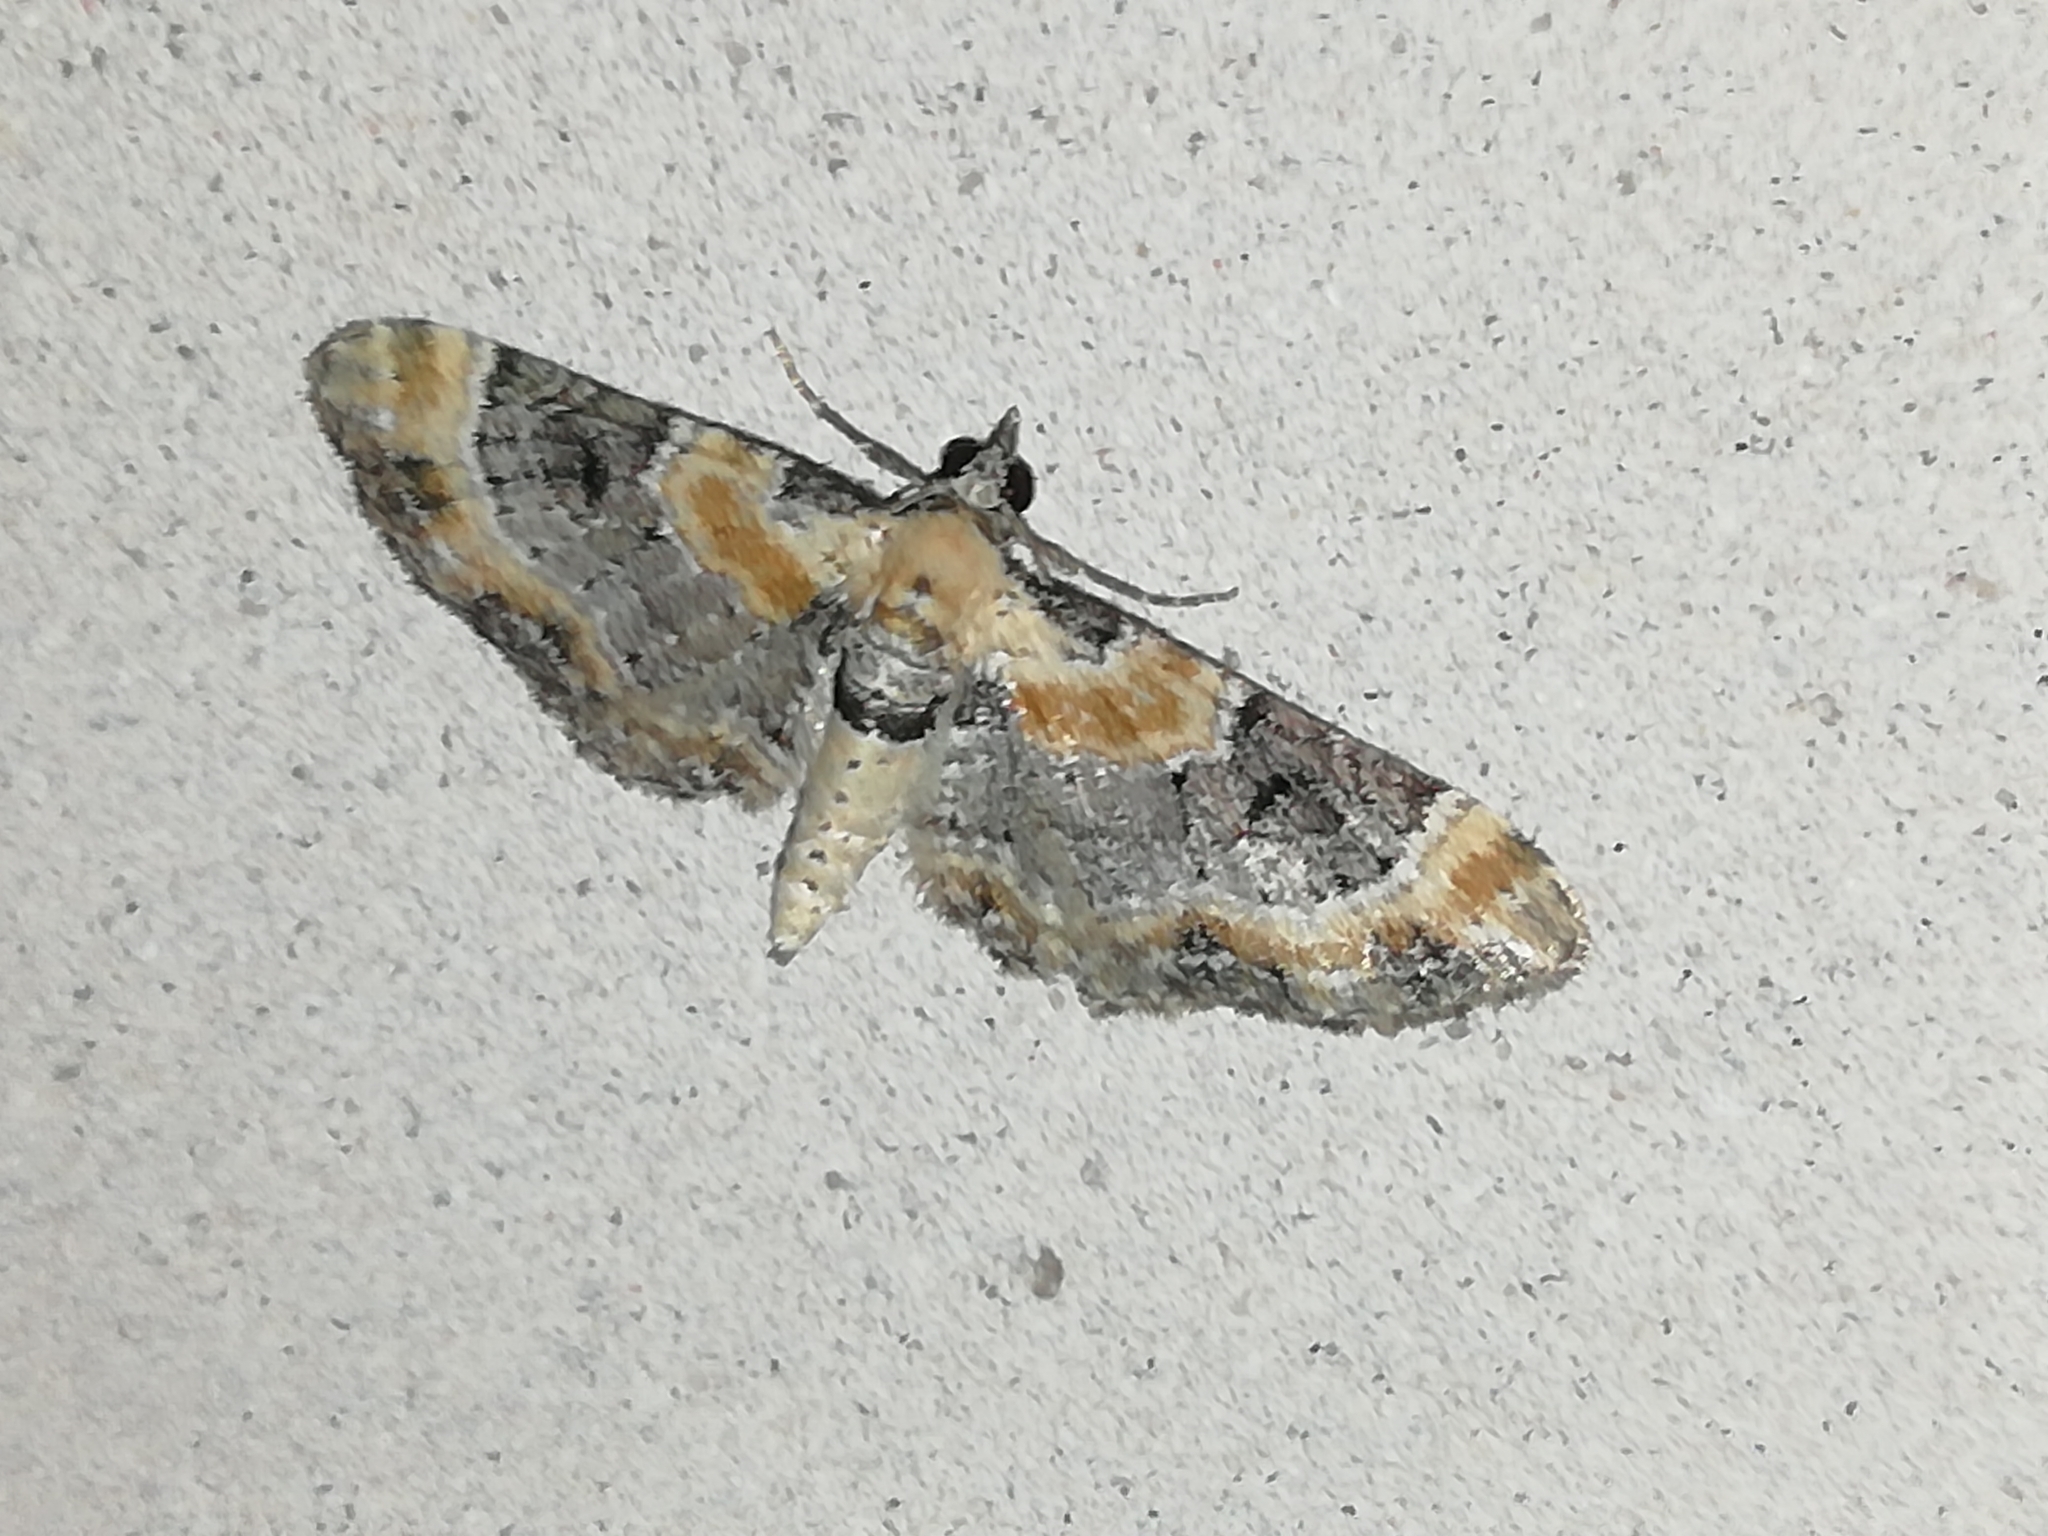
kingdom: Animalia
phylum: Arthropoda
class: Insecta
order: Lepidoptera
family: Geometridae
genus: Eupithecia
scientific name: Eupithecia linariata
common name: Toadflax pug
